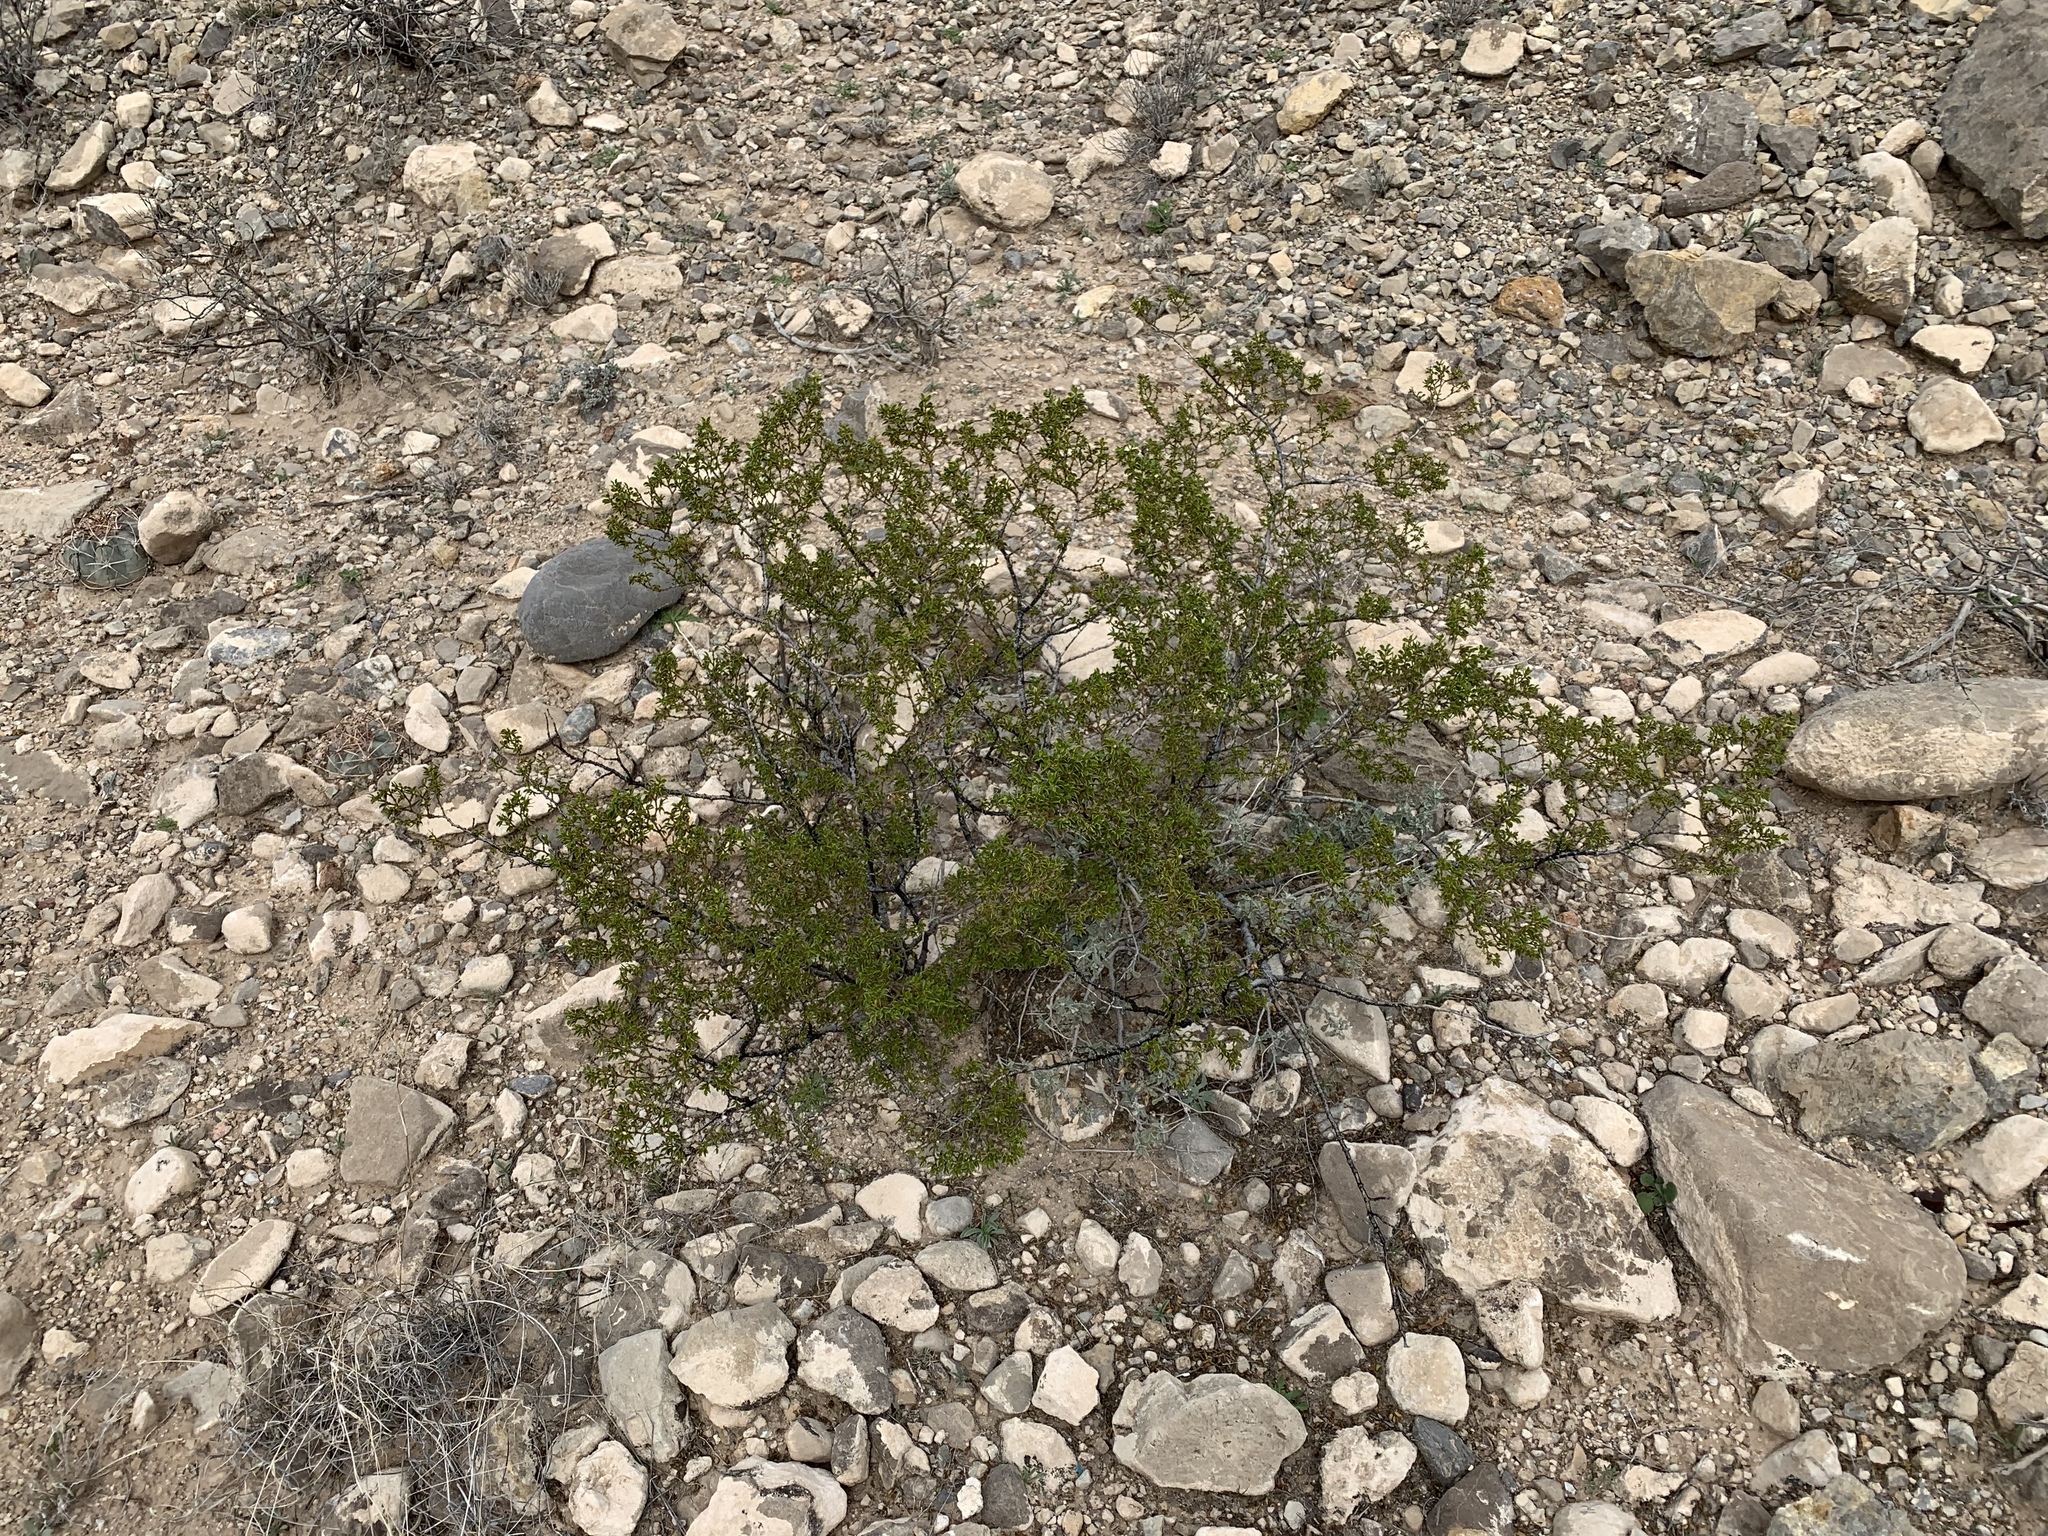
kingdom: Plantae
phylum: Tracheophyta
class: Magnoliopsida
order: Zygophyllales
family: Zygophyllaceae
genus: Larrea
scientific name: Larrea tridentata
